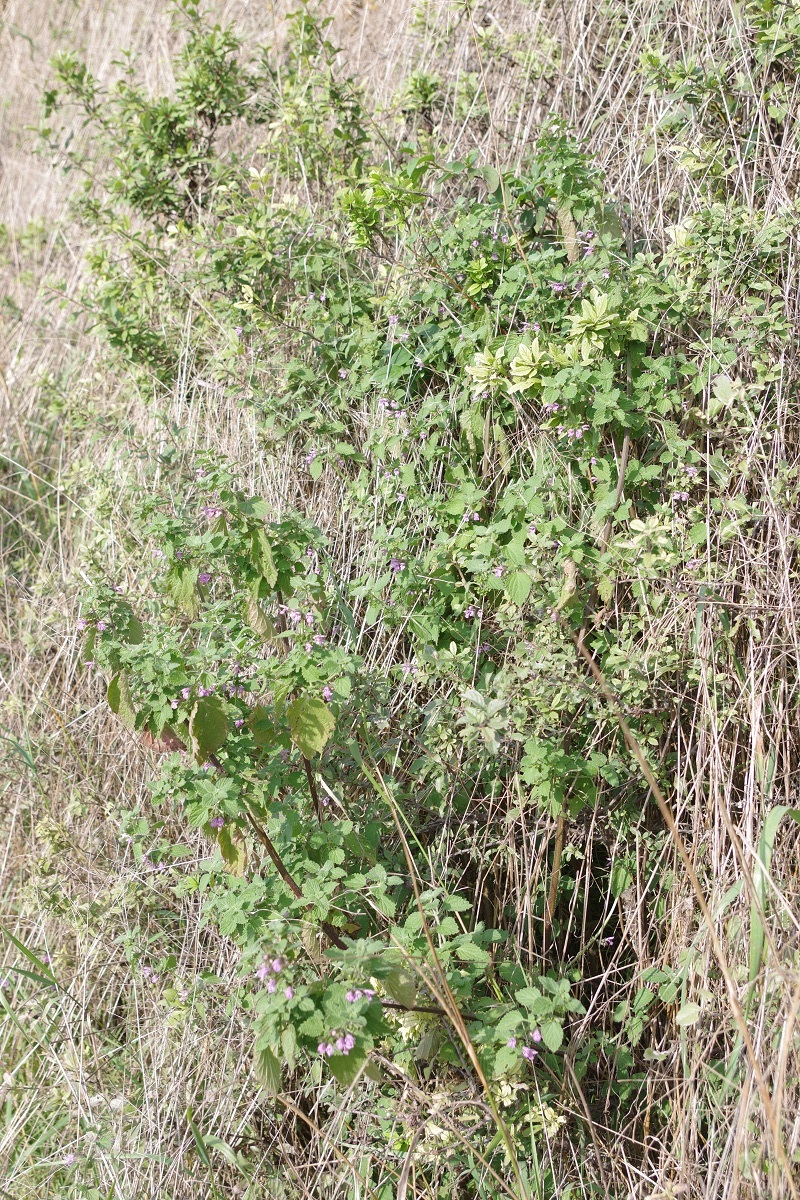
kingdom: Plantae
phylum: Tracheophyta
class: Magnoliopsida
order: Lamiales
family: Lamiaceae
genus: Ballota
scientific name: Ballota nigra
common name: Black horehound
